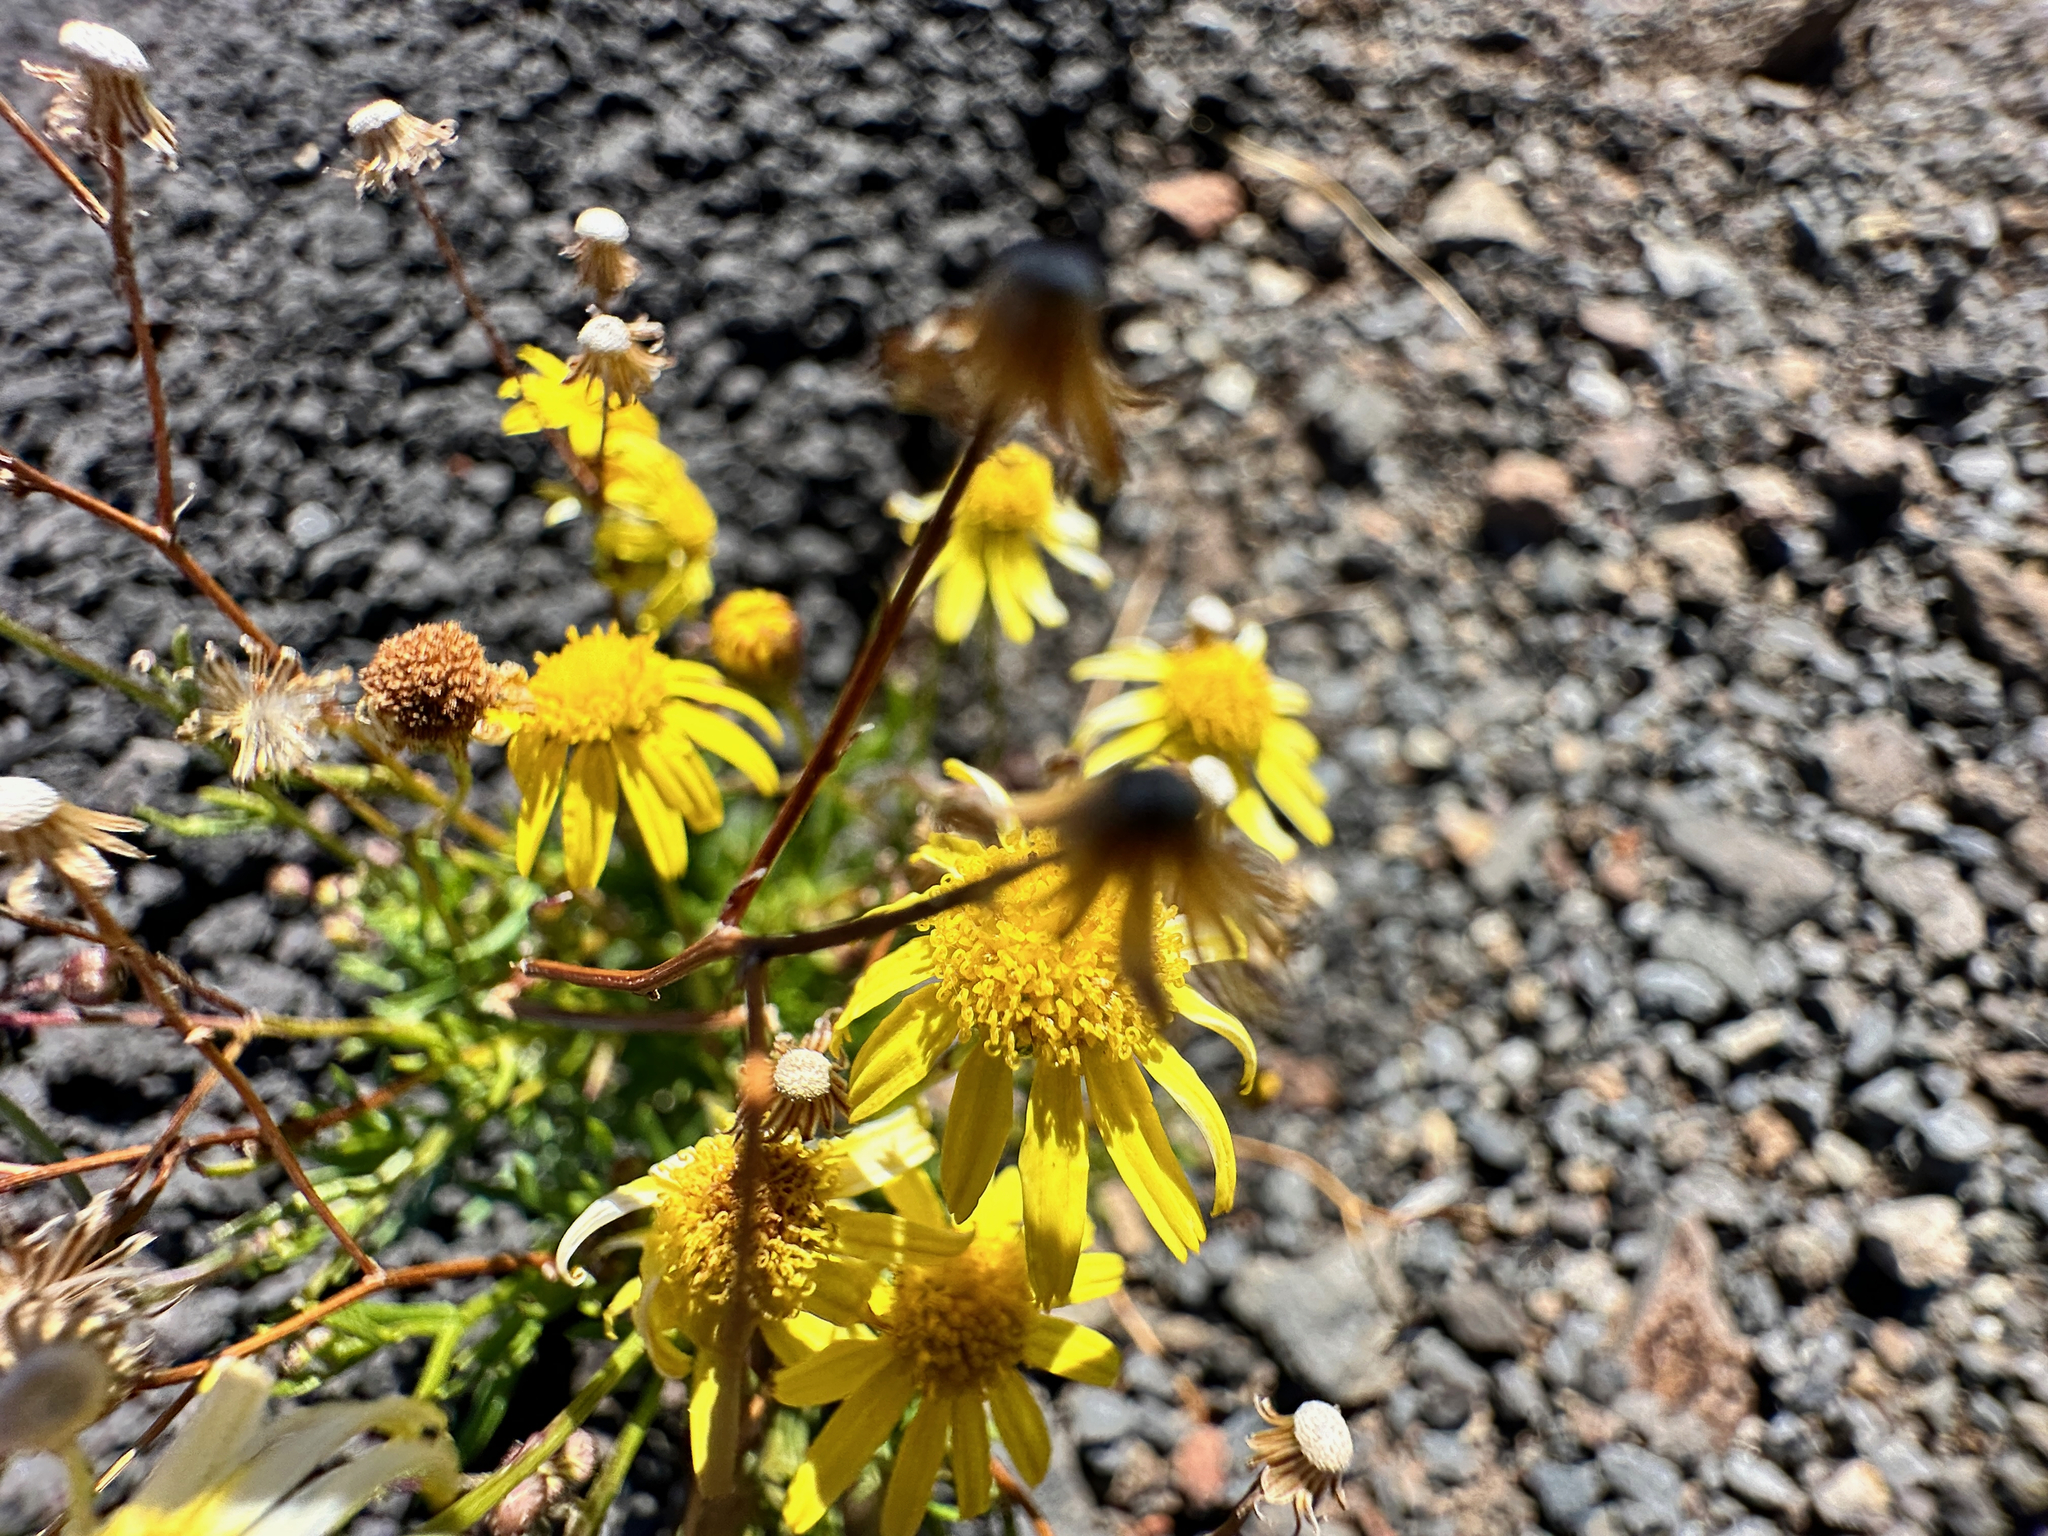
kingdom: Plantae
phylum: Tracheophyta
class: Magnoliopsida
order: Asterales
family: Asteraceae
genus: Senecio
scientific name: Senecio madagascariensis
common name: Madagascar ragwort
